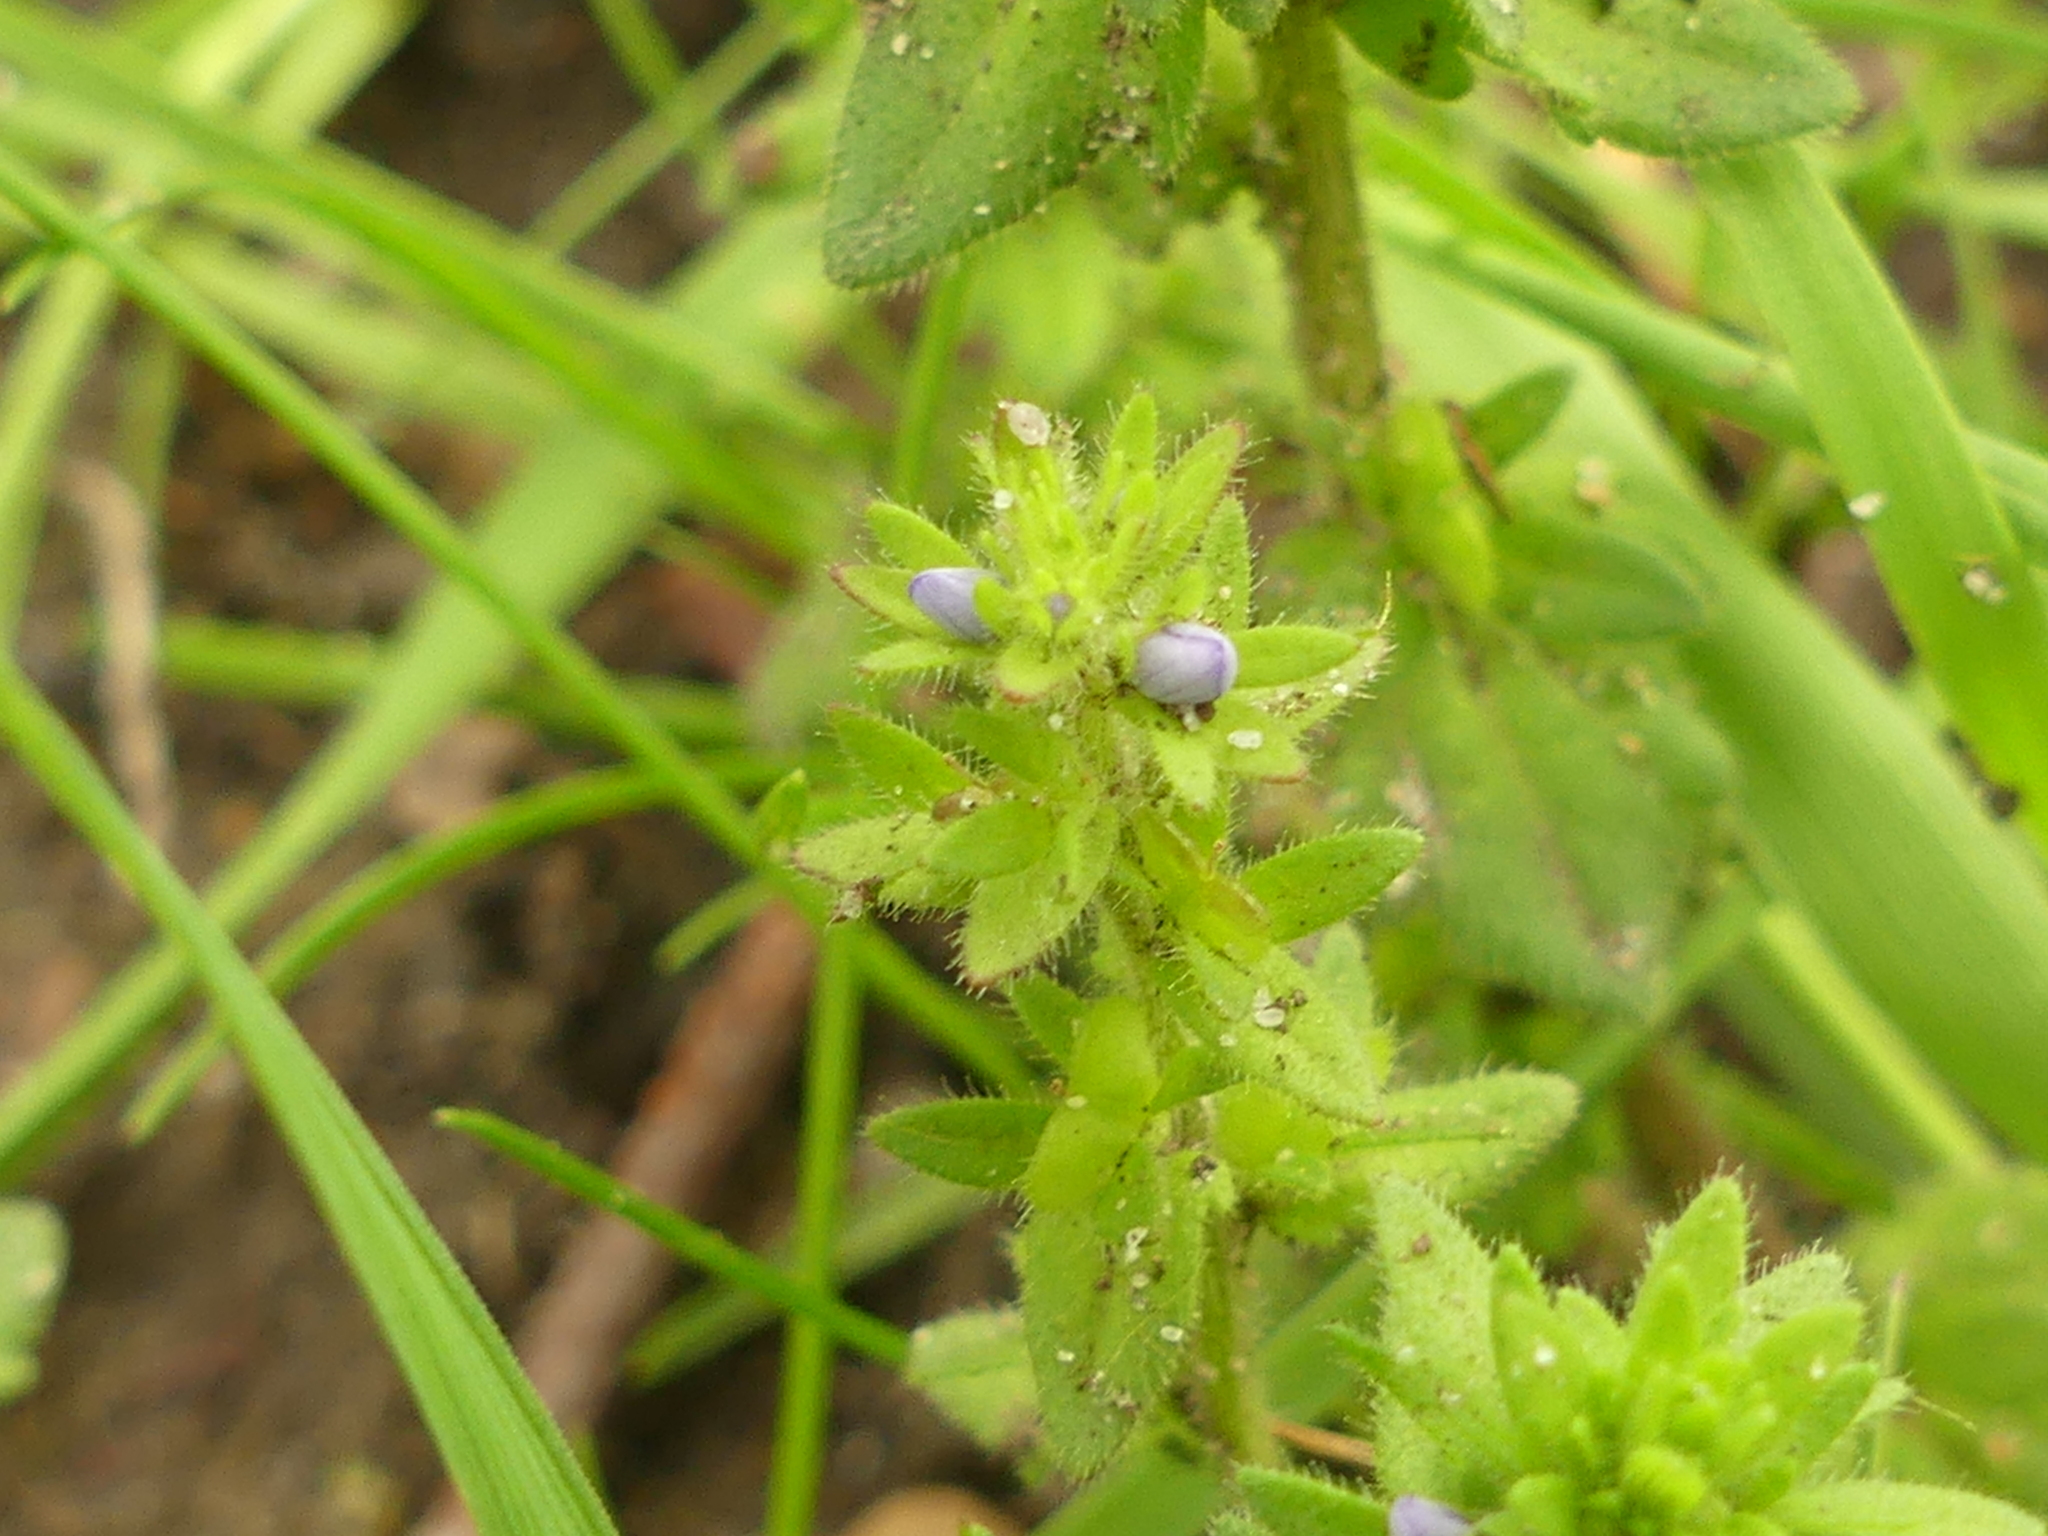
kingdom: Plantae
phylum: Tracheophyta
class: Magnoliopsida
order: Lamiales
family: Plantaginaceae
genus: Veronica
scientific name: Veronica arvensis
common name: Corn speedwell
